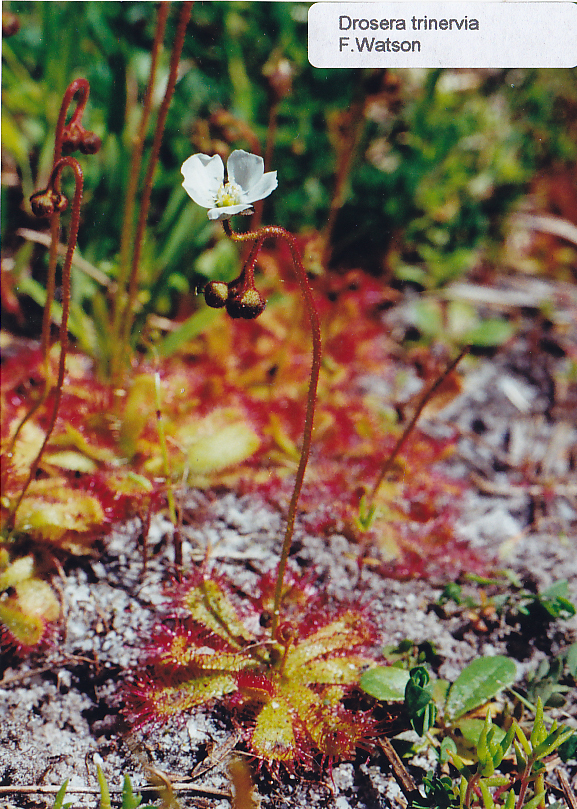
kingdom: Plantae
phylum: Tracheophyta
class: Magnoliopsida
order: Caryophyllales
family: Droseraceae
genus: Drosera
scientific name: Drosera trinervia
